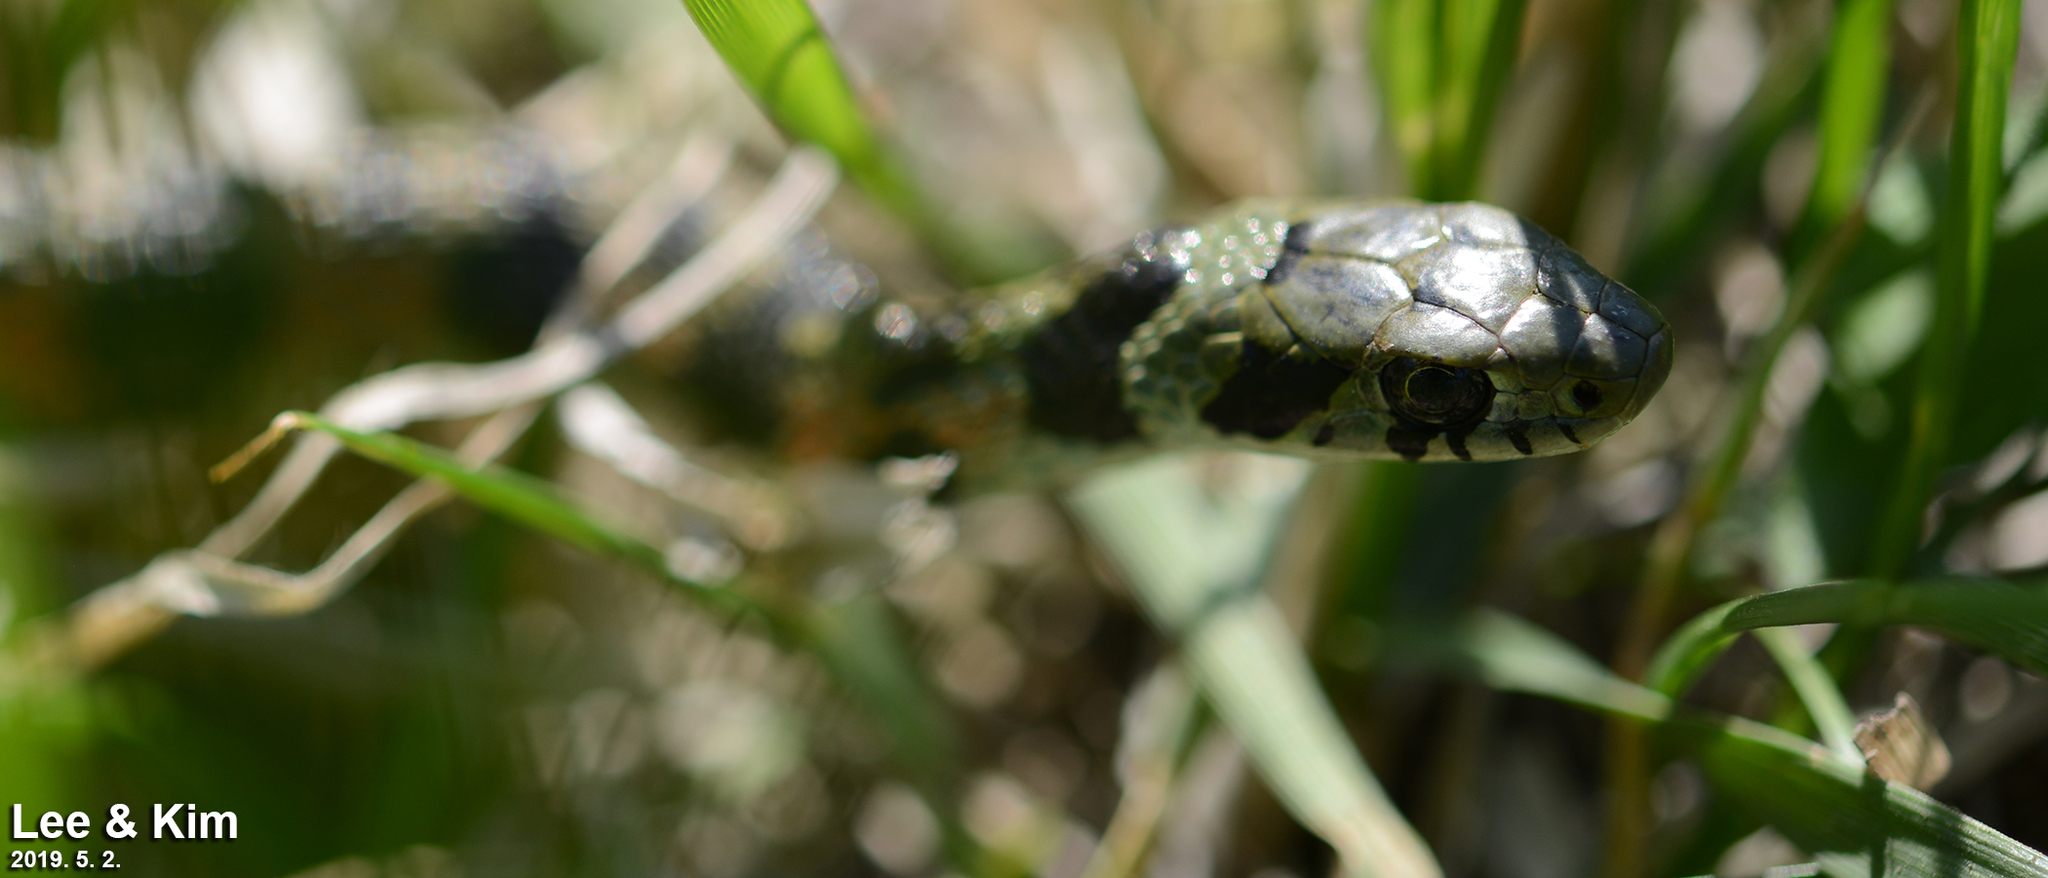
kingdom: Animalia
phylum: Chordata
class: Squamata
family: Colubridae
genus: Rhabdophis
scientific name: Rhabdophis tigrinus
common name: Tiger keelback
